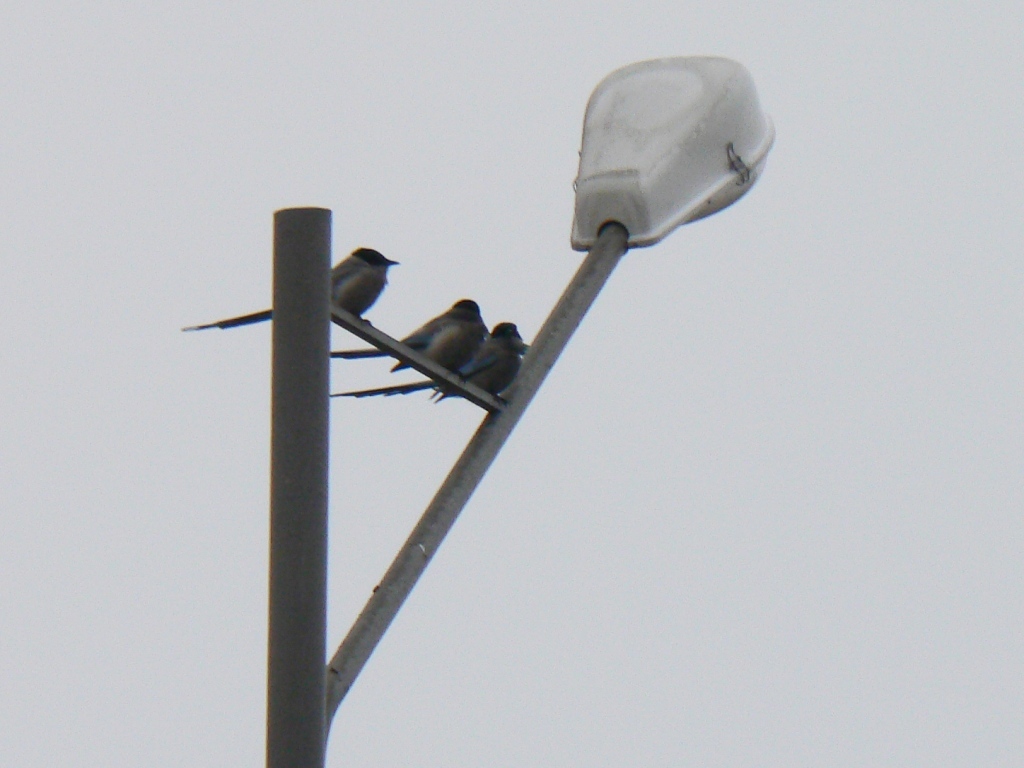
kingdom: Animalia
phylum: Chordata
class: Aves
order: Passeriformes
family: Corvidae
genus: Cyanopica
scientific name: Cyanopica cyanus
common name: Azure-winged magpie
